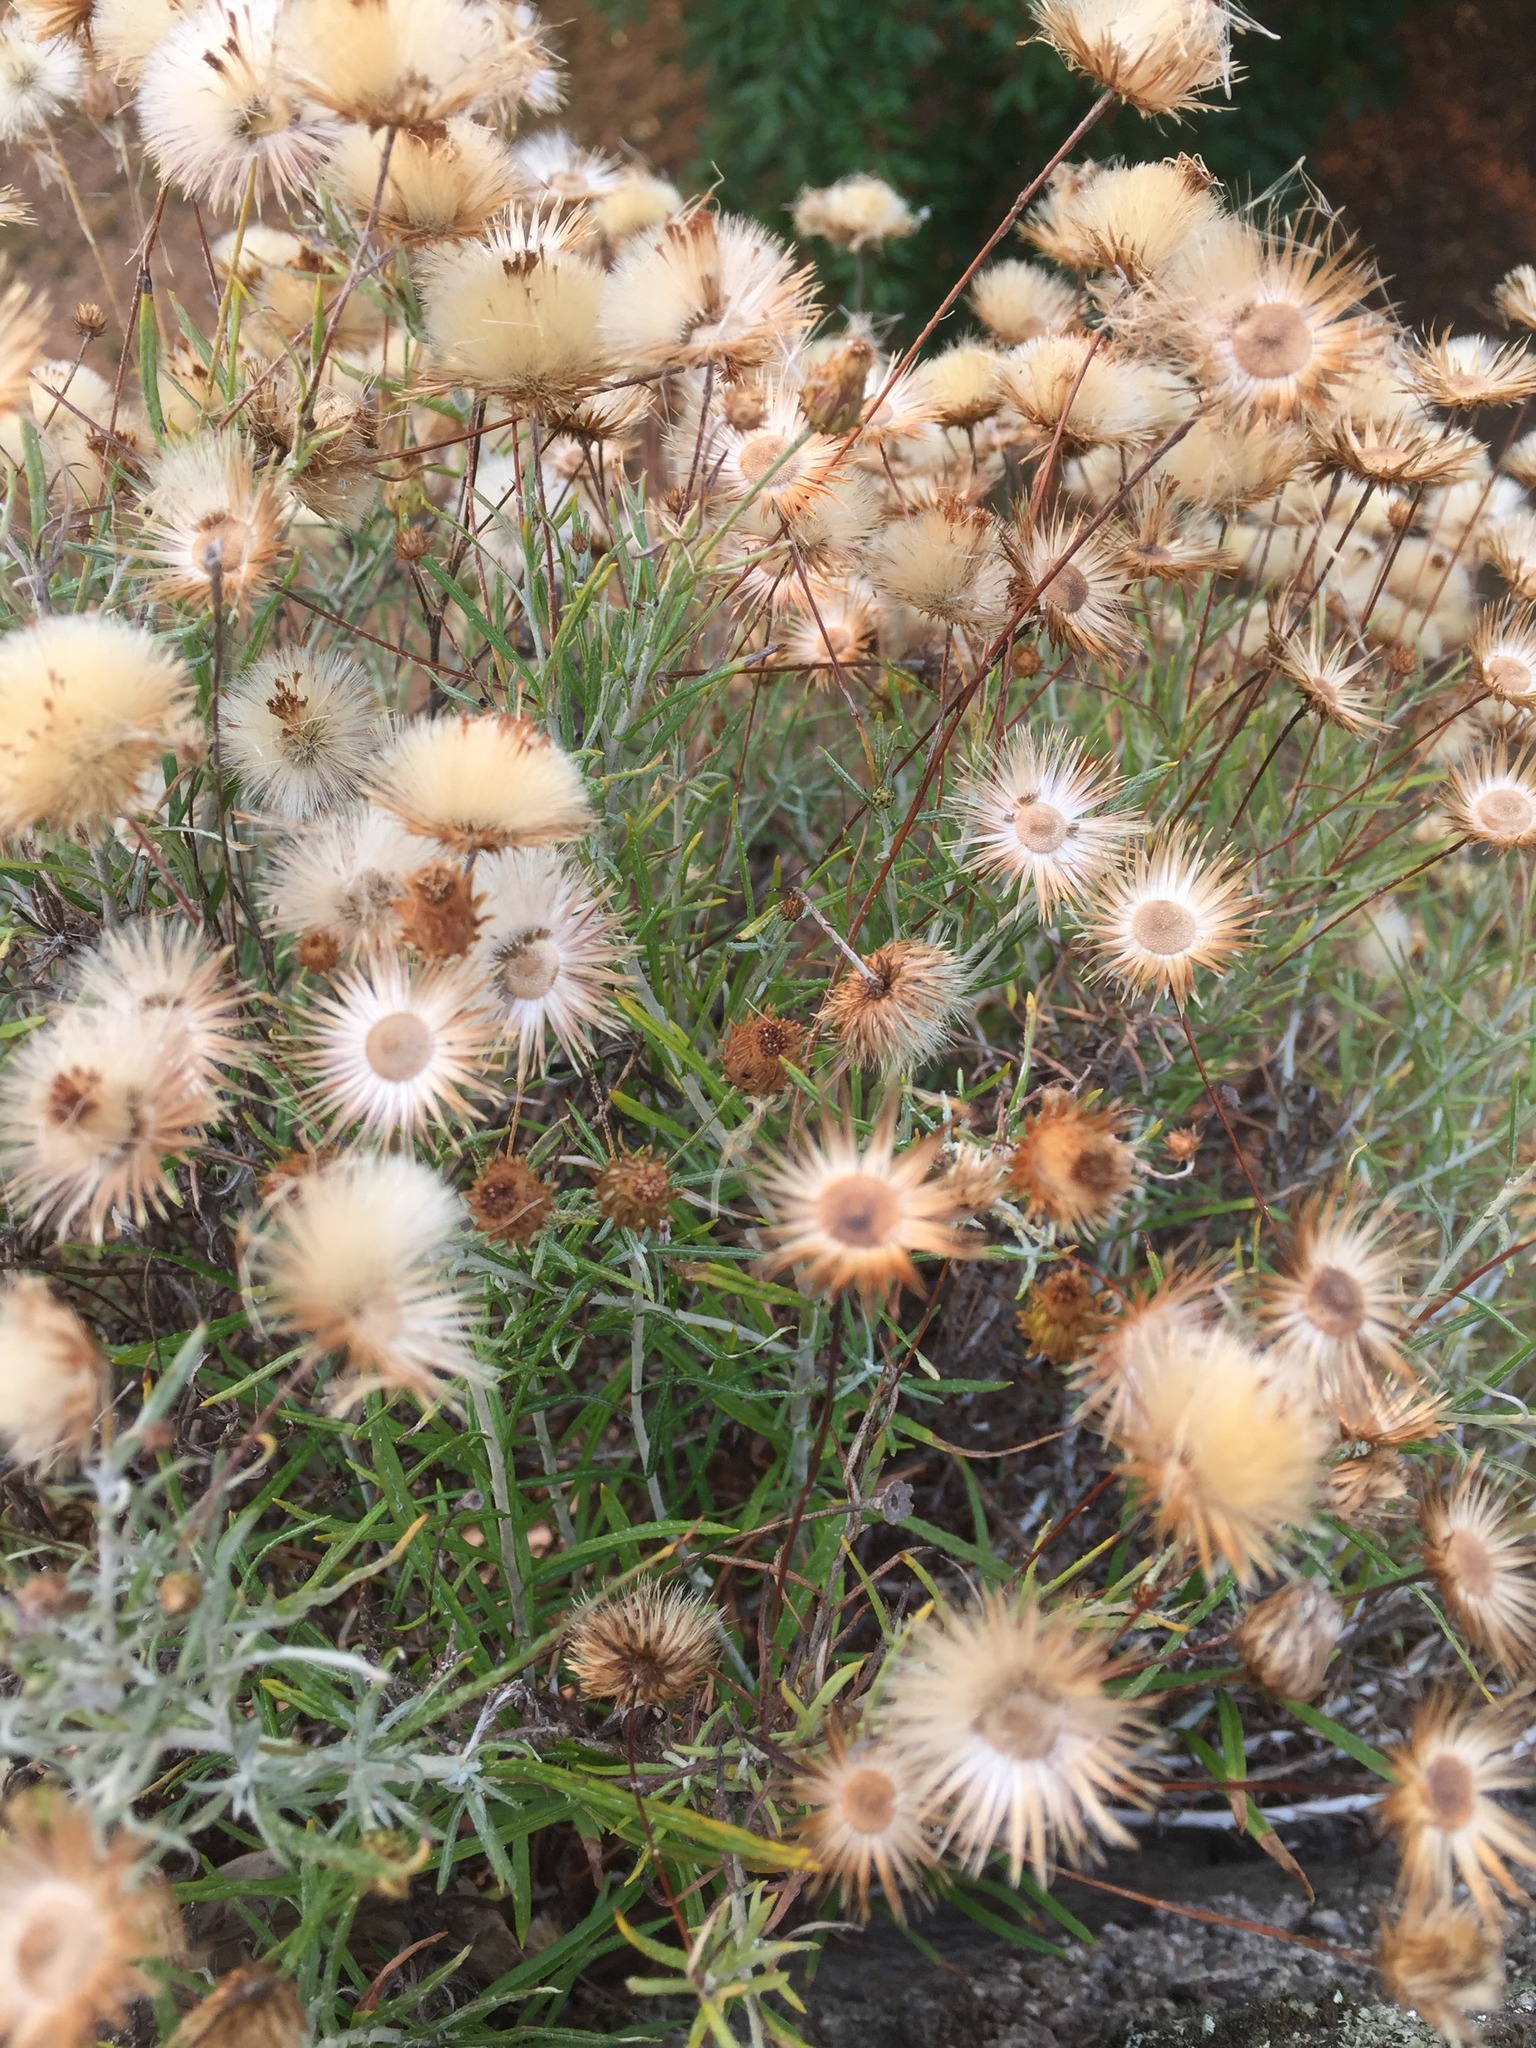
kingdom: Plantae
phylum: Tracheophyta
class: Magnoliopsida
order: Asterales
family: Asteraceae
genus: Phagnalon
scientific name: Phagnalon saxatile
